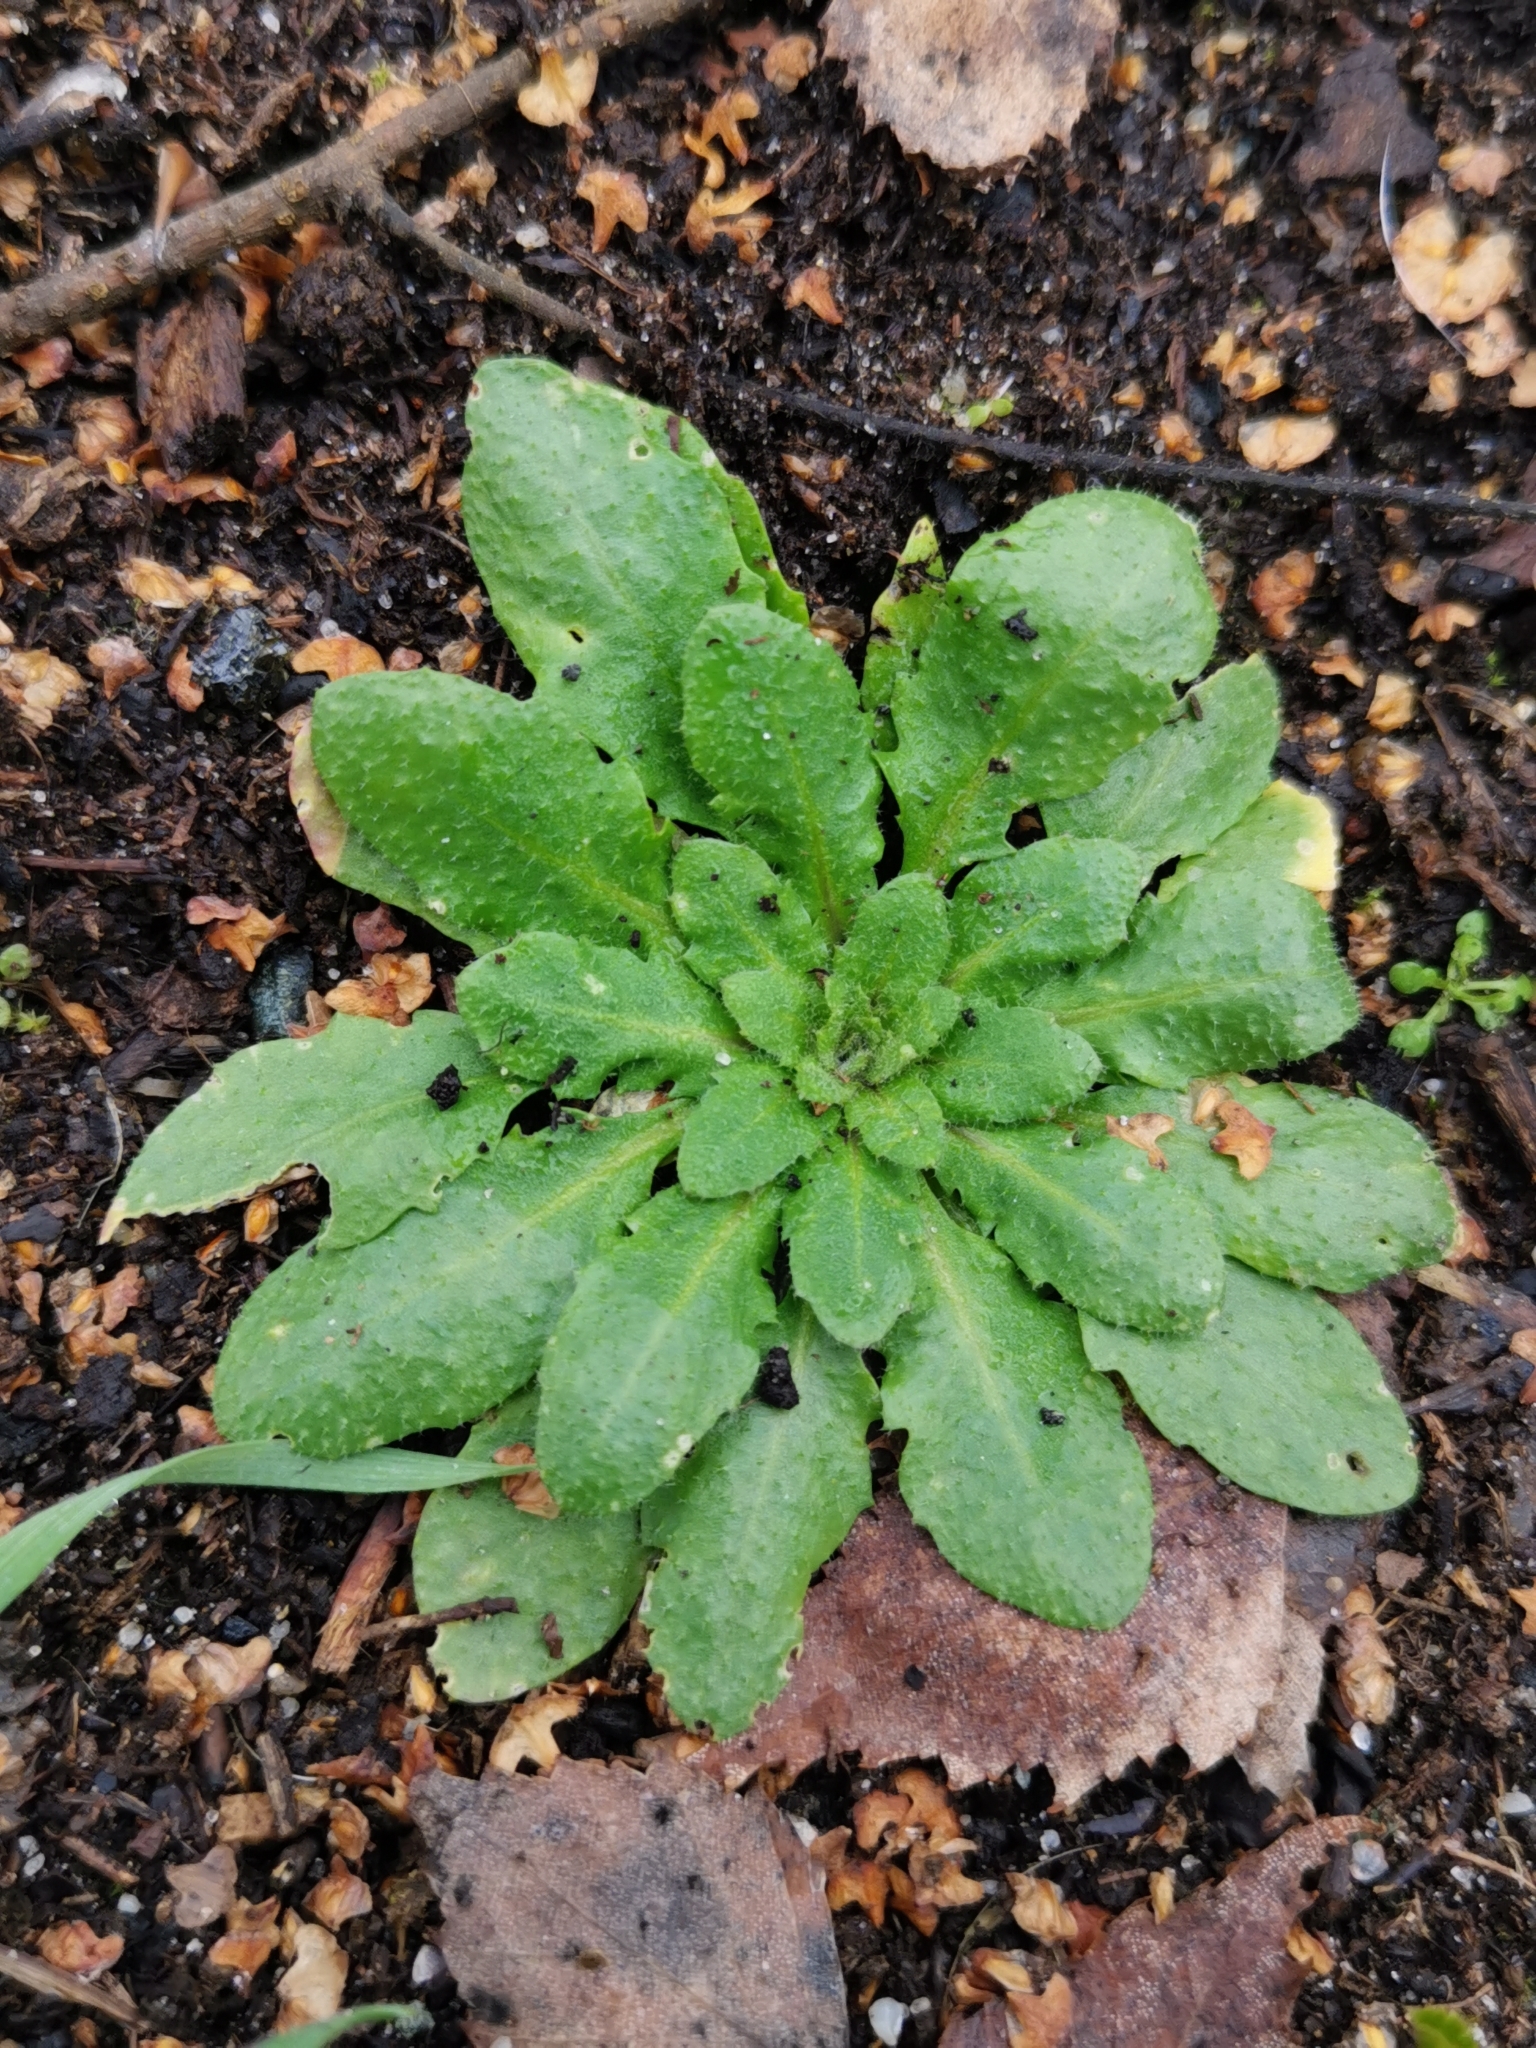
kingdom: Plantae
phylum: Tracheophyta
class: Magnoliopsida
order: Brassicales
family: Brassicaceae
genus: Arabidopsis
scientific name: Arabidopsis thaliana
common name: Thale cress
